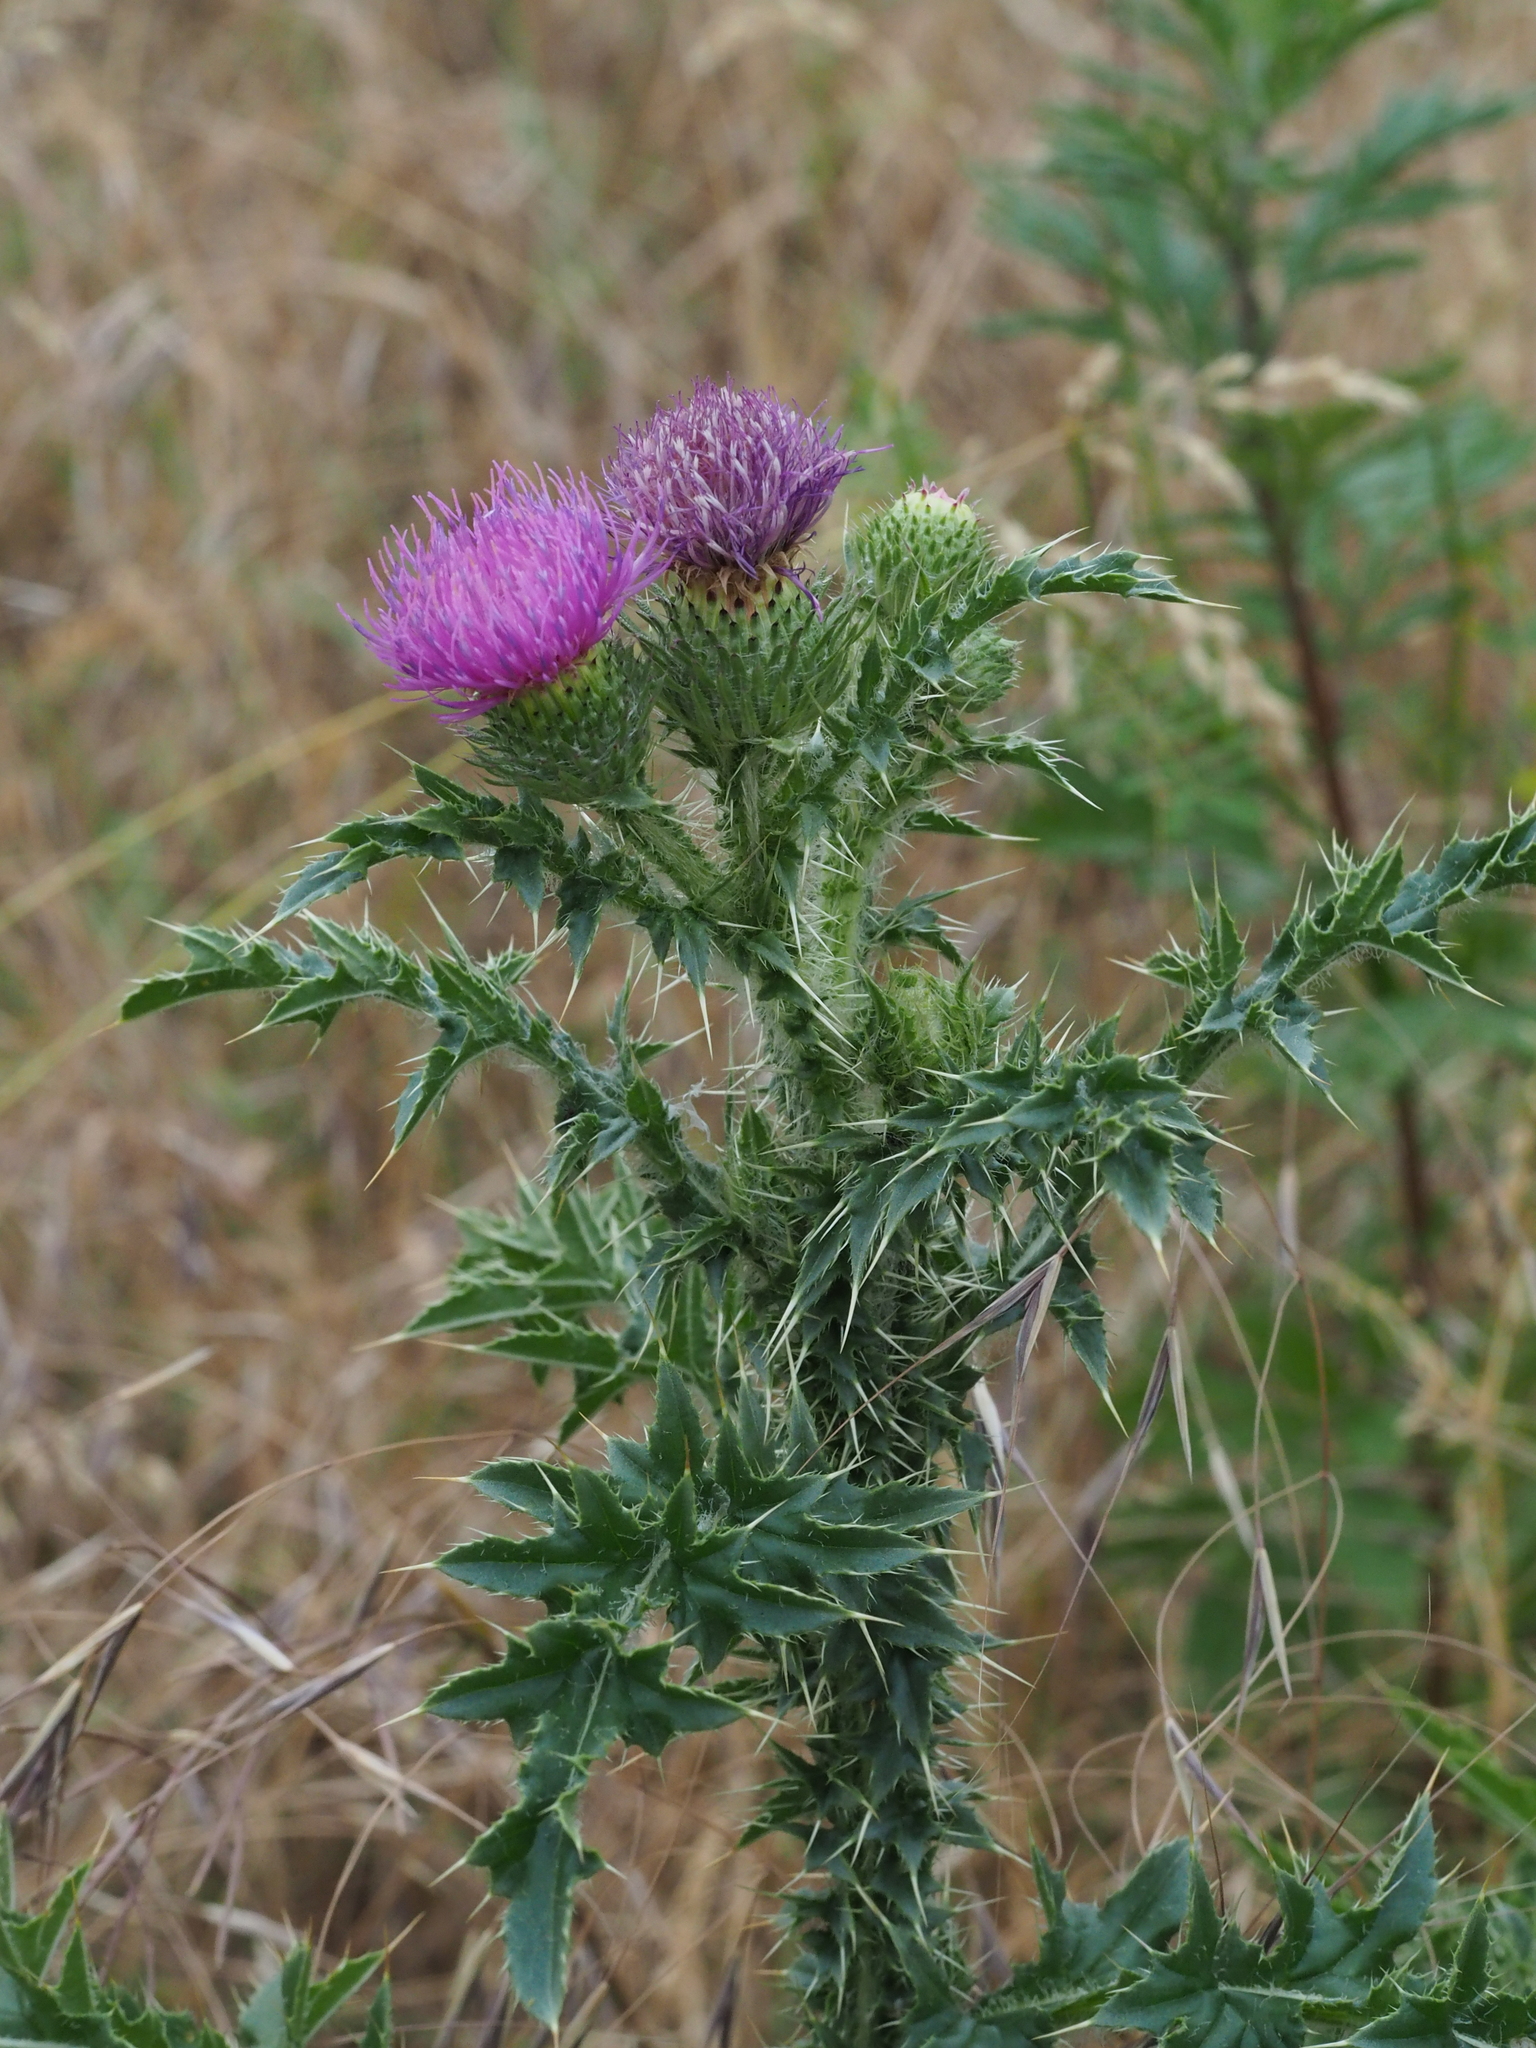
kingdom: Plantae
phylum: Tracheophyta
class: Magnoliopsida
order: Asterales
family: Asteraceae
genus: Carduus
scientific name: Carduus acanthoides
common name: Plumeless thistle
